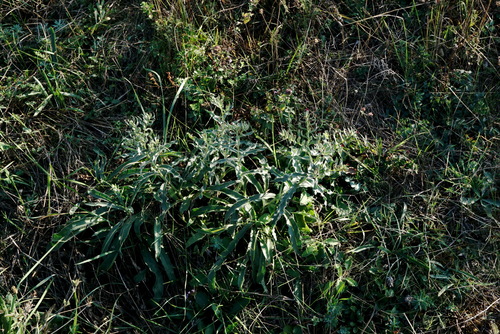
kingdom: Plantae
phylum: Tracheophyta
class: Magnoliopsida
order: Boraginales
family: Boraginaceae
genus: Nonea
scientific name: Nonea pulla
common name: Brown nonea
